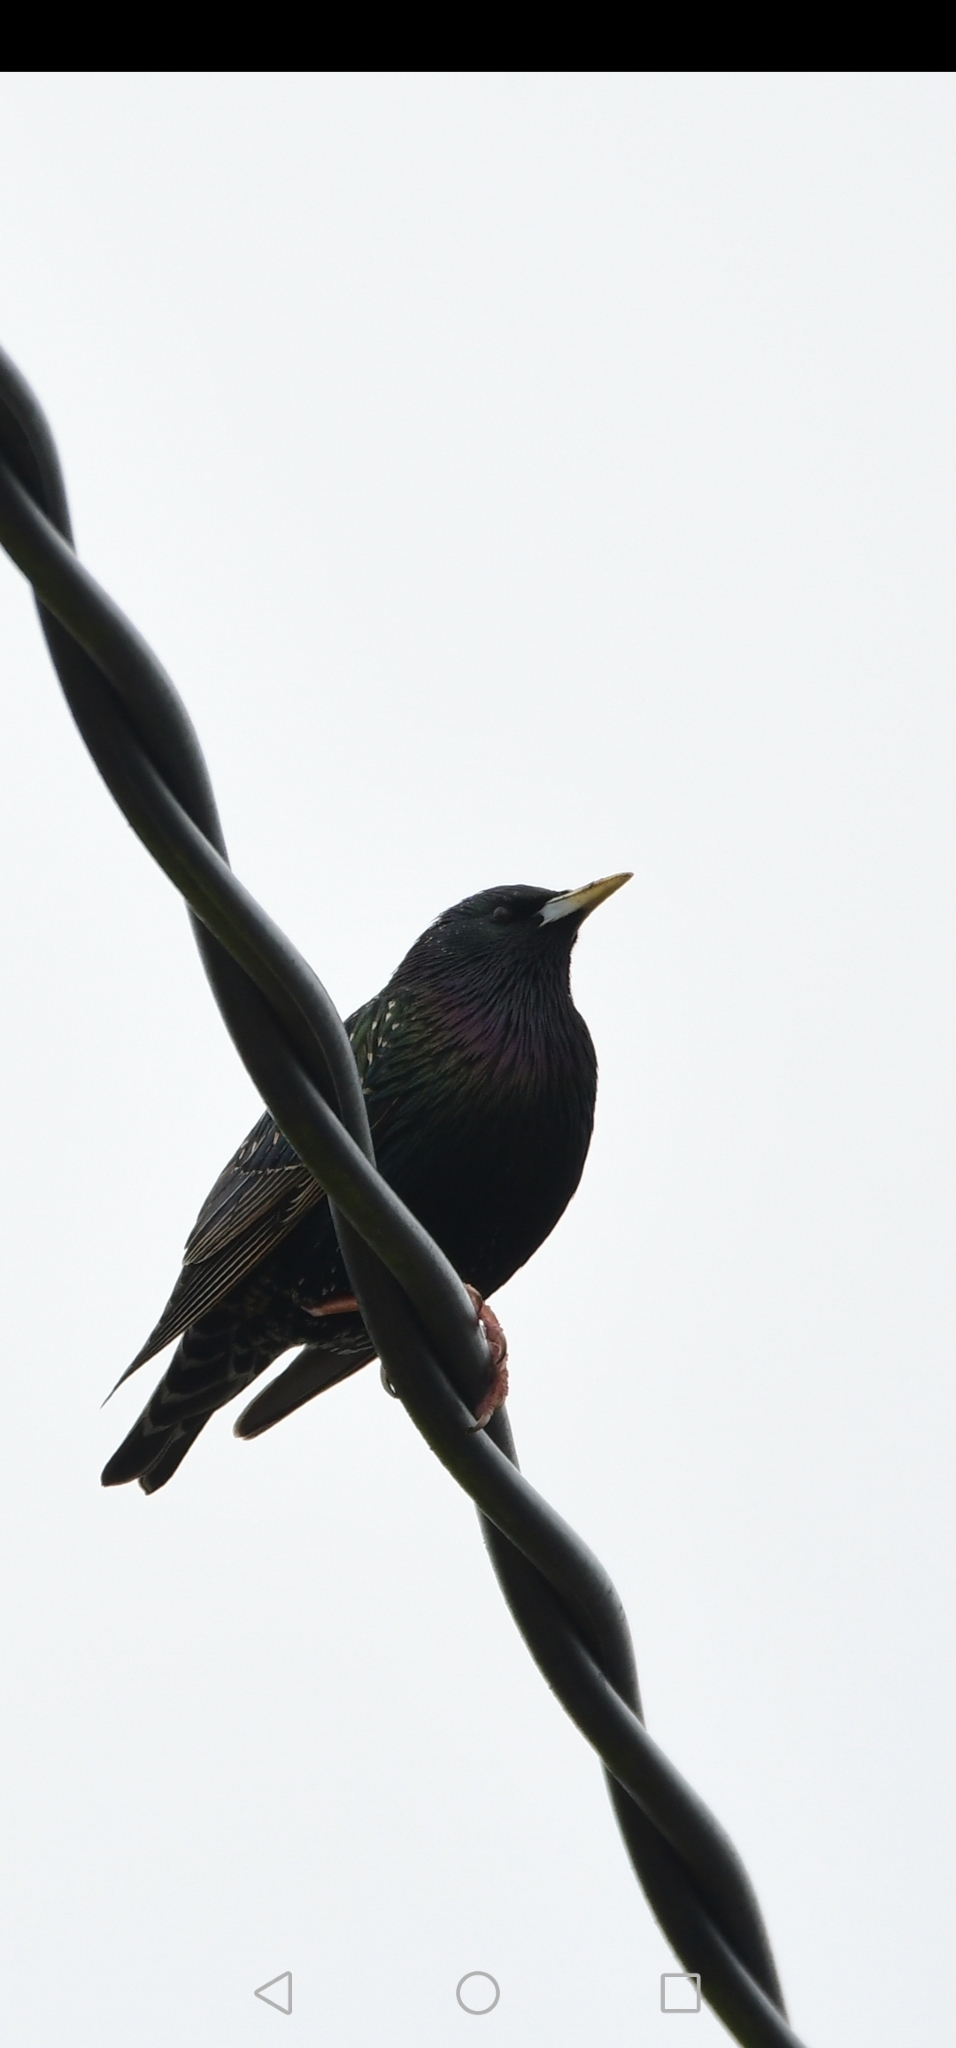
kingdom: Animalia
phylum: Chordata
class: Aves
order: Passeriformes
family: Sturnidae
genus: Sturnus
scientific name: Sturnus vulgaris
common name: Common starling
